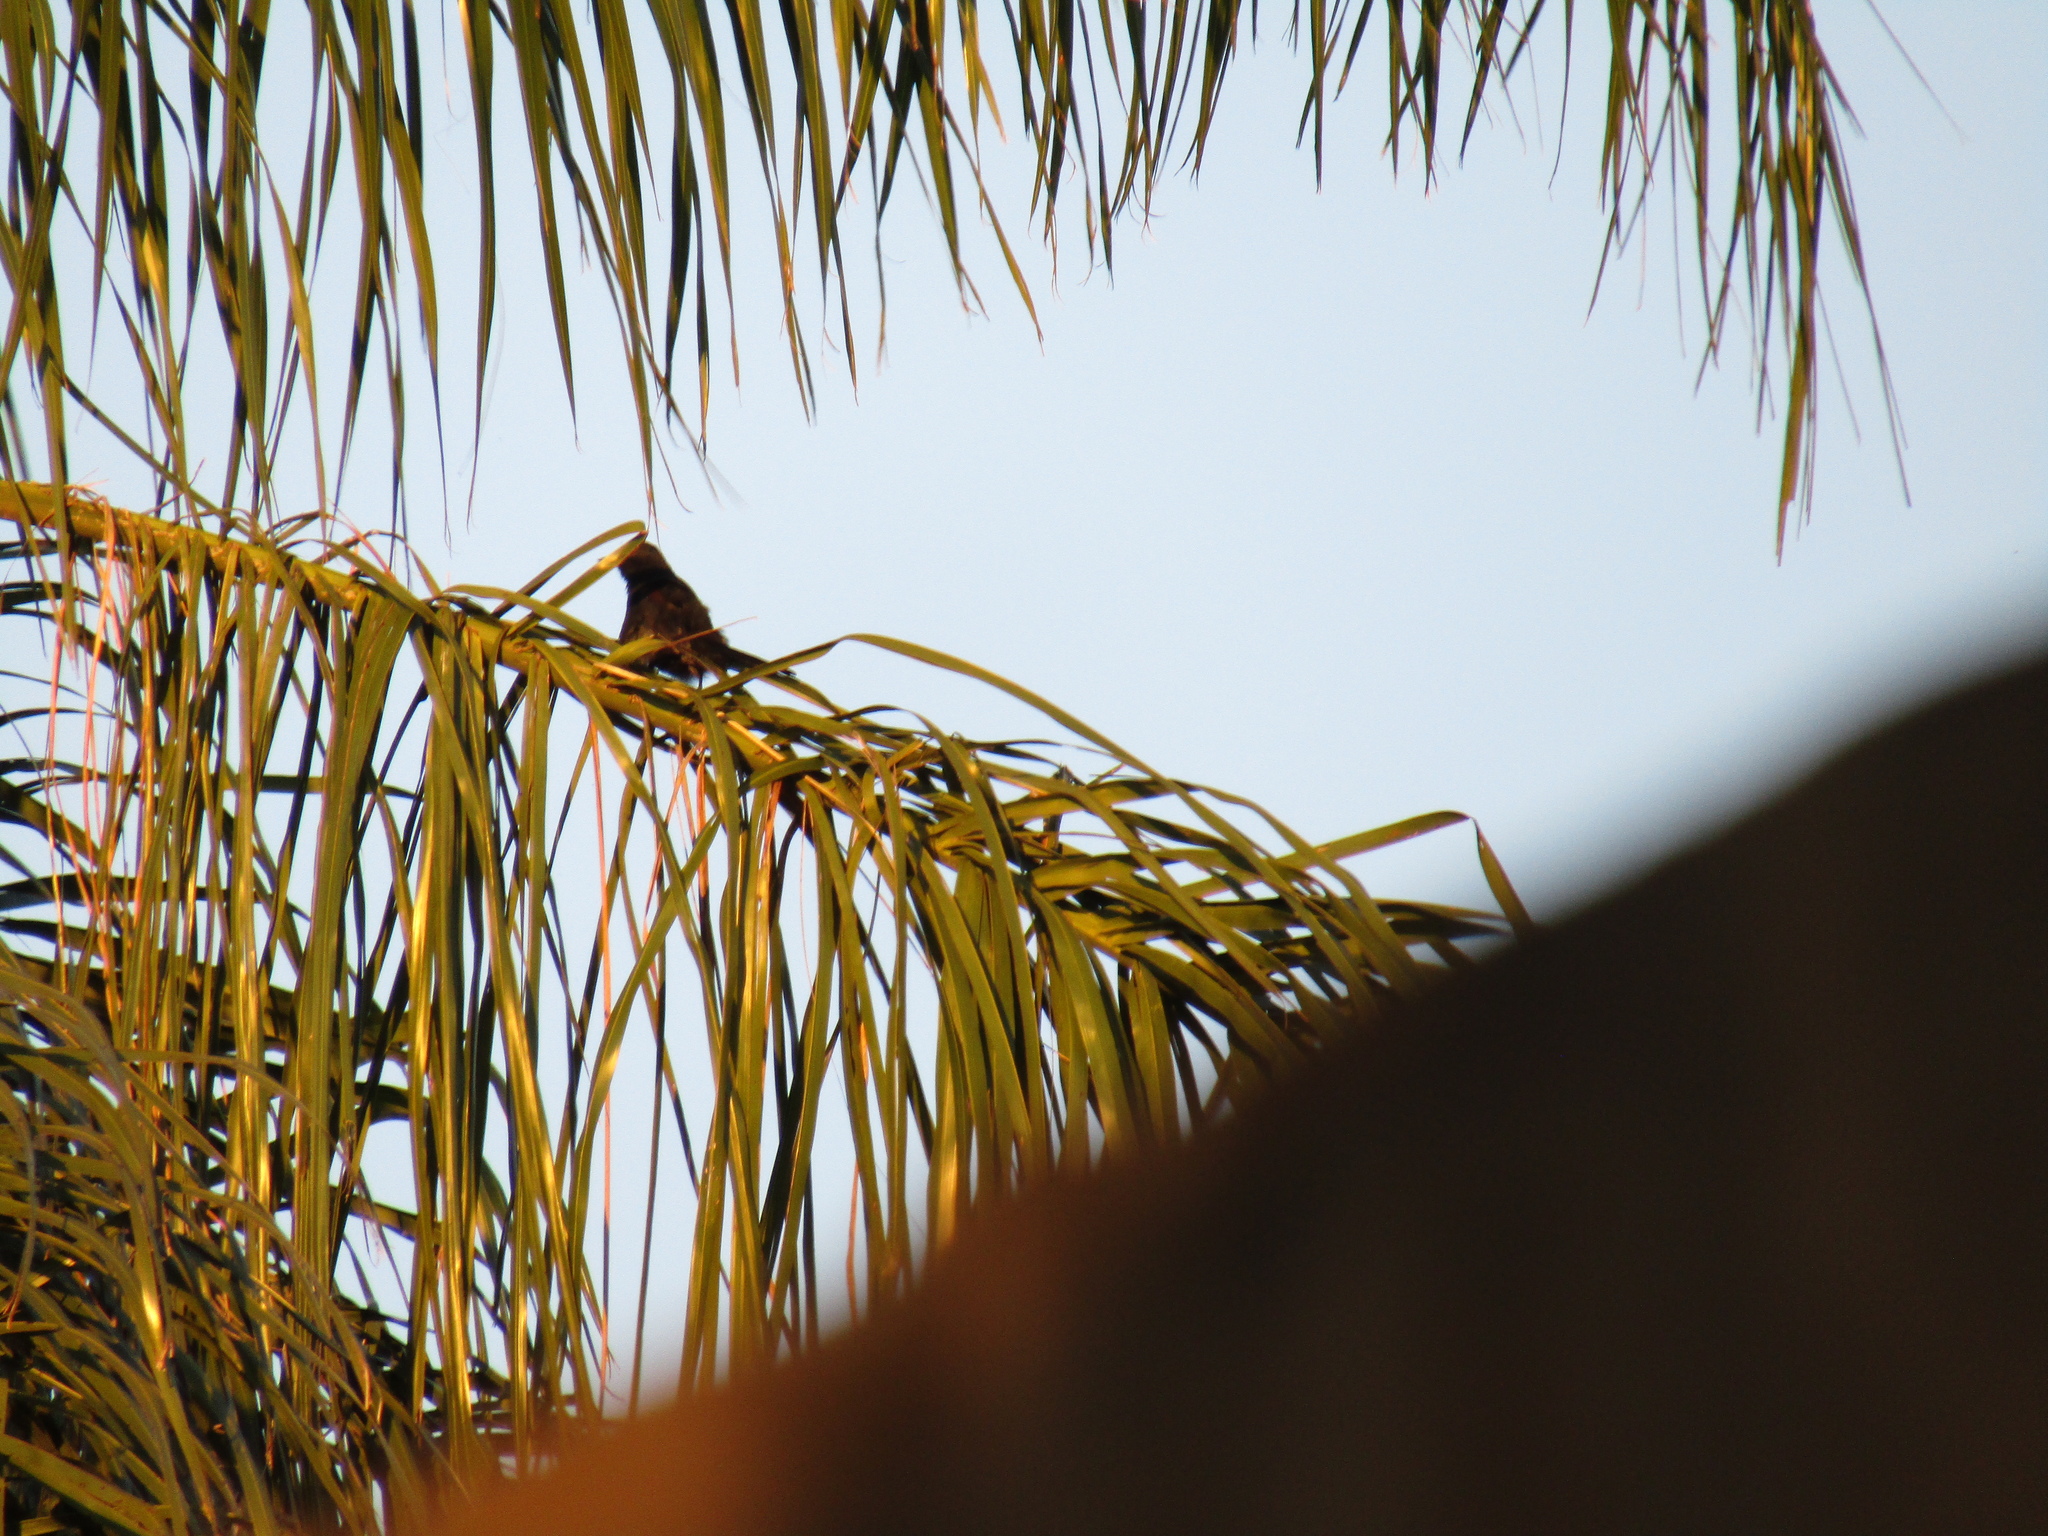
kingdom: Animalia
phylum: Chordata
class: Aves
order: Passeriformes
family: Icteridae
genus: Icterus
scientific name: Icterus cayanensis
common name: Epaulet oriole
